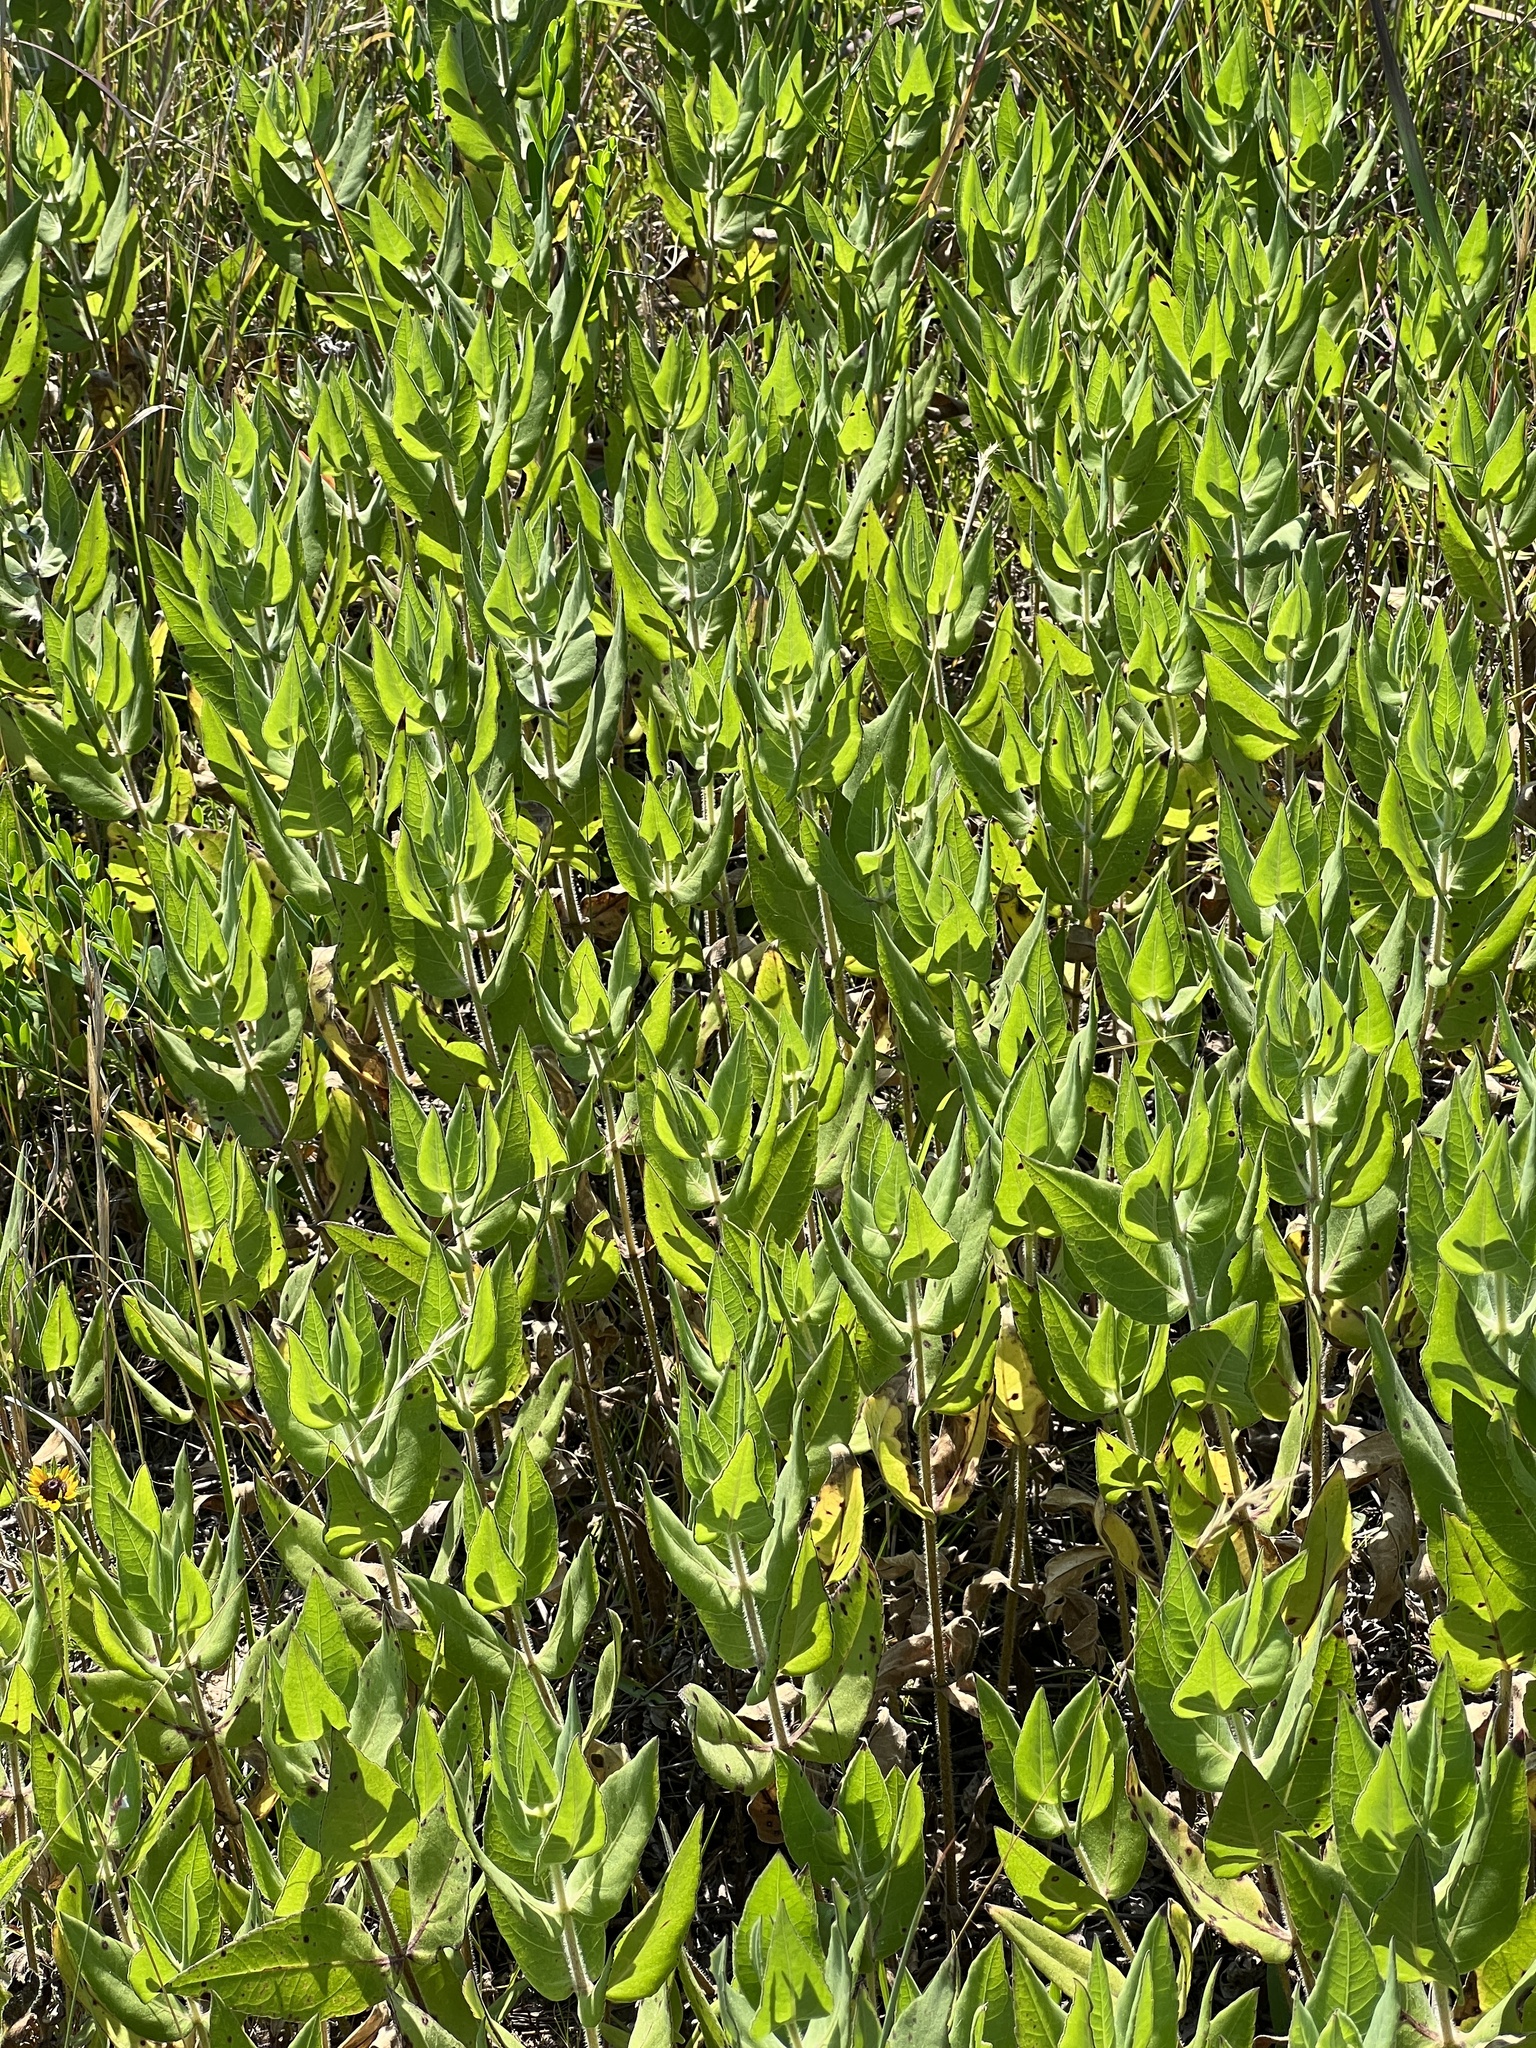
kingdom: Plantae
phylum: Tracheophyta
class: Magnoliopsida
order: Asterales
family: Asteraceae
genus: Helianthus
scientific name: Helianthus mollis
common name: Ashy sunflower
